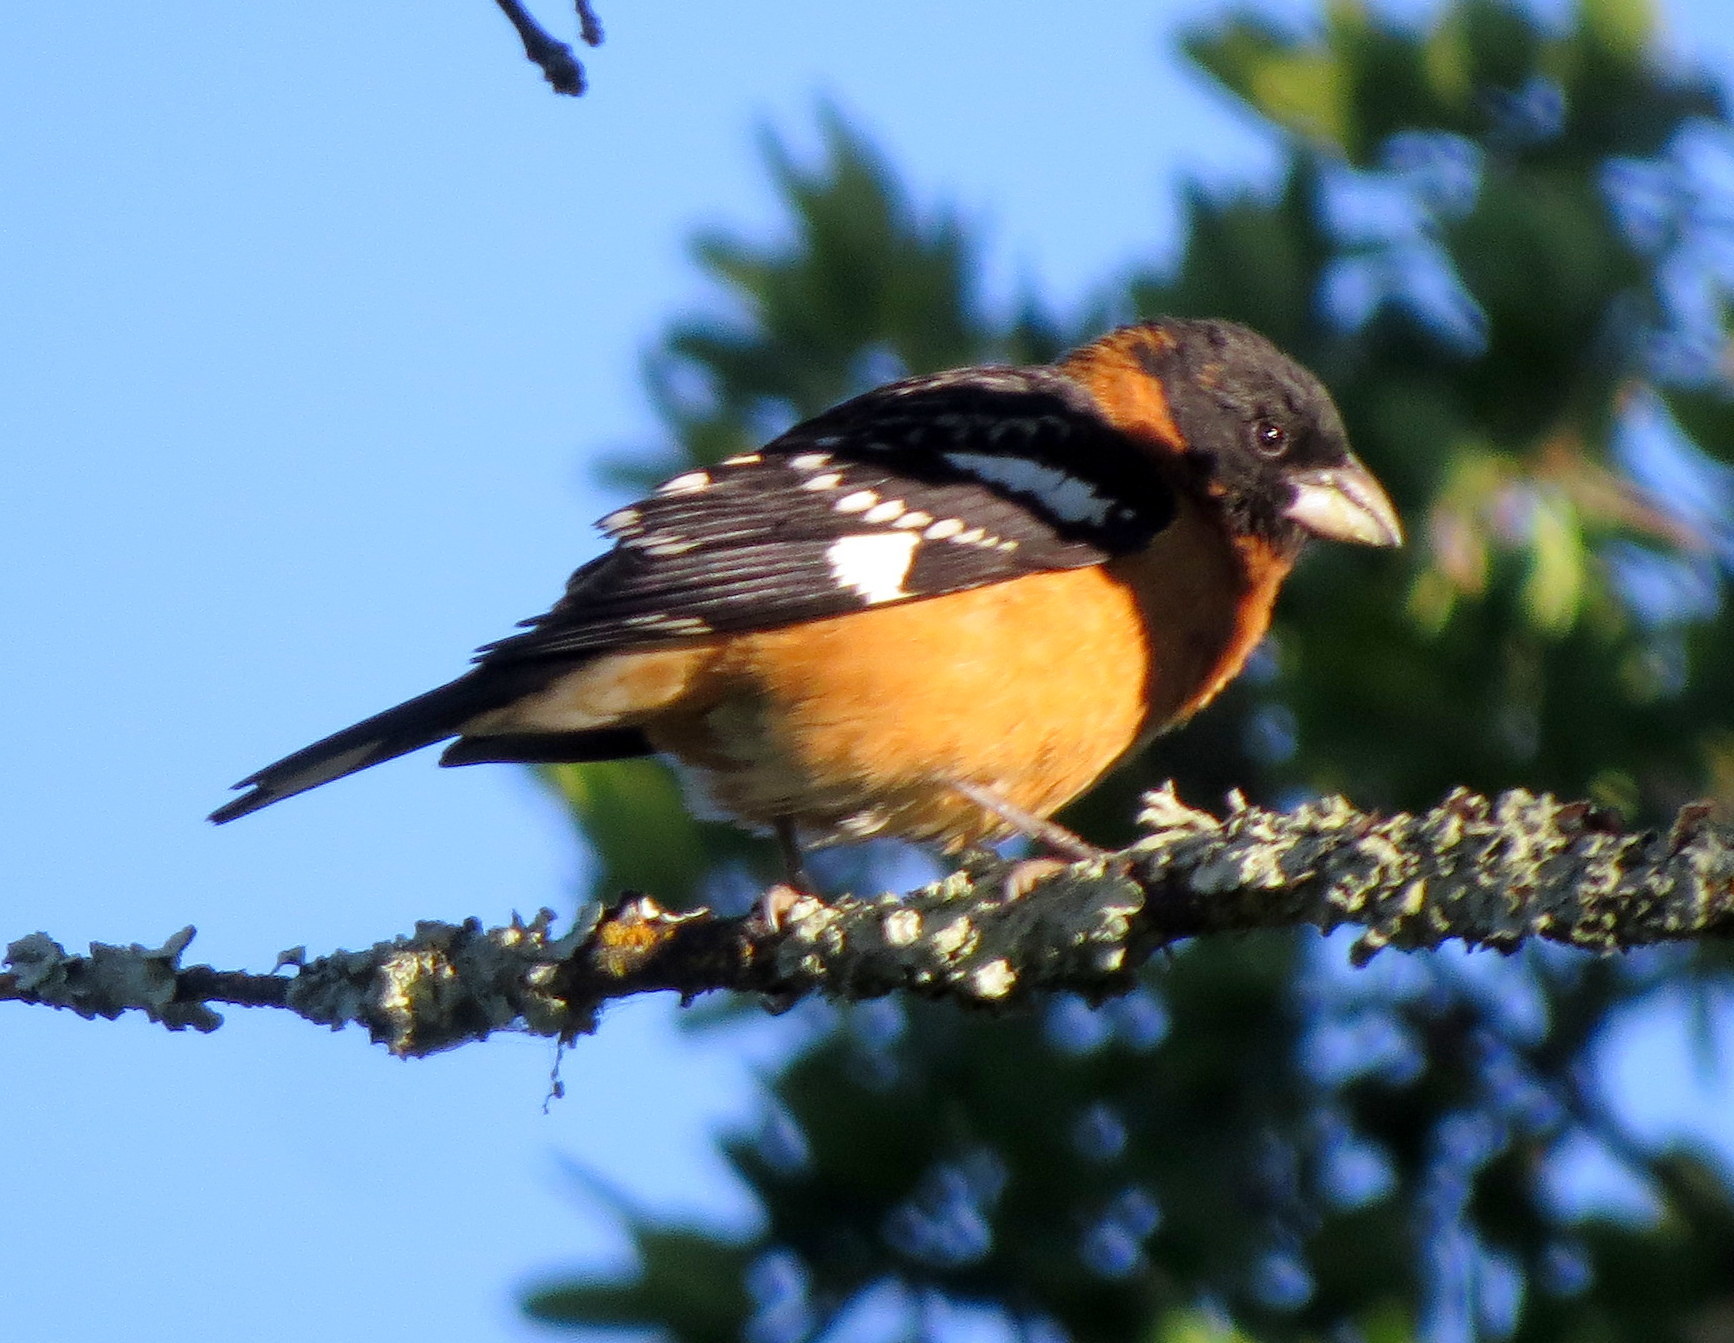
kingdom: Animalia
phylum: Chordata
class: Aves
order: Passeriformes
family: Cardinalidae
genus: Pheucticus
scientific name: Pheucticus melanocephalus
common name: Black-headed grosbeak
